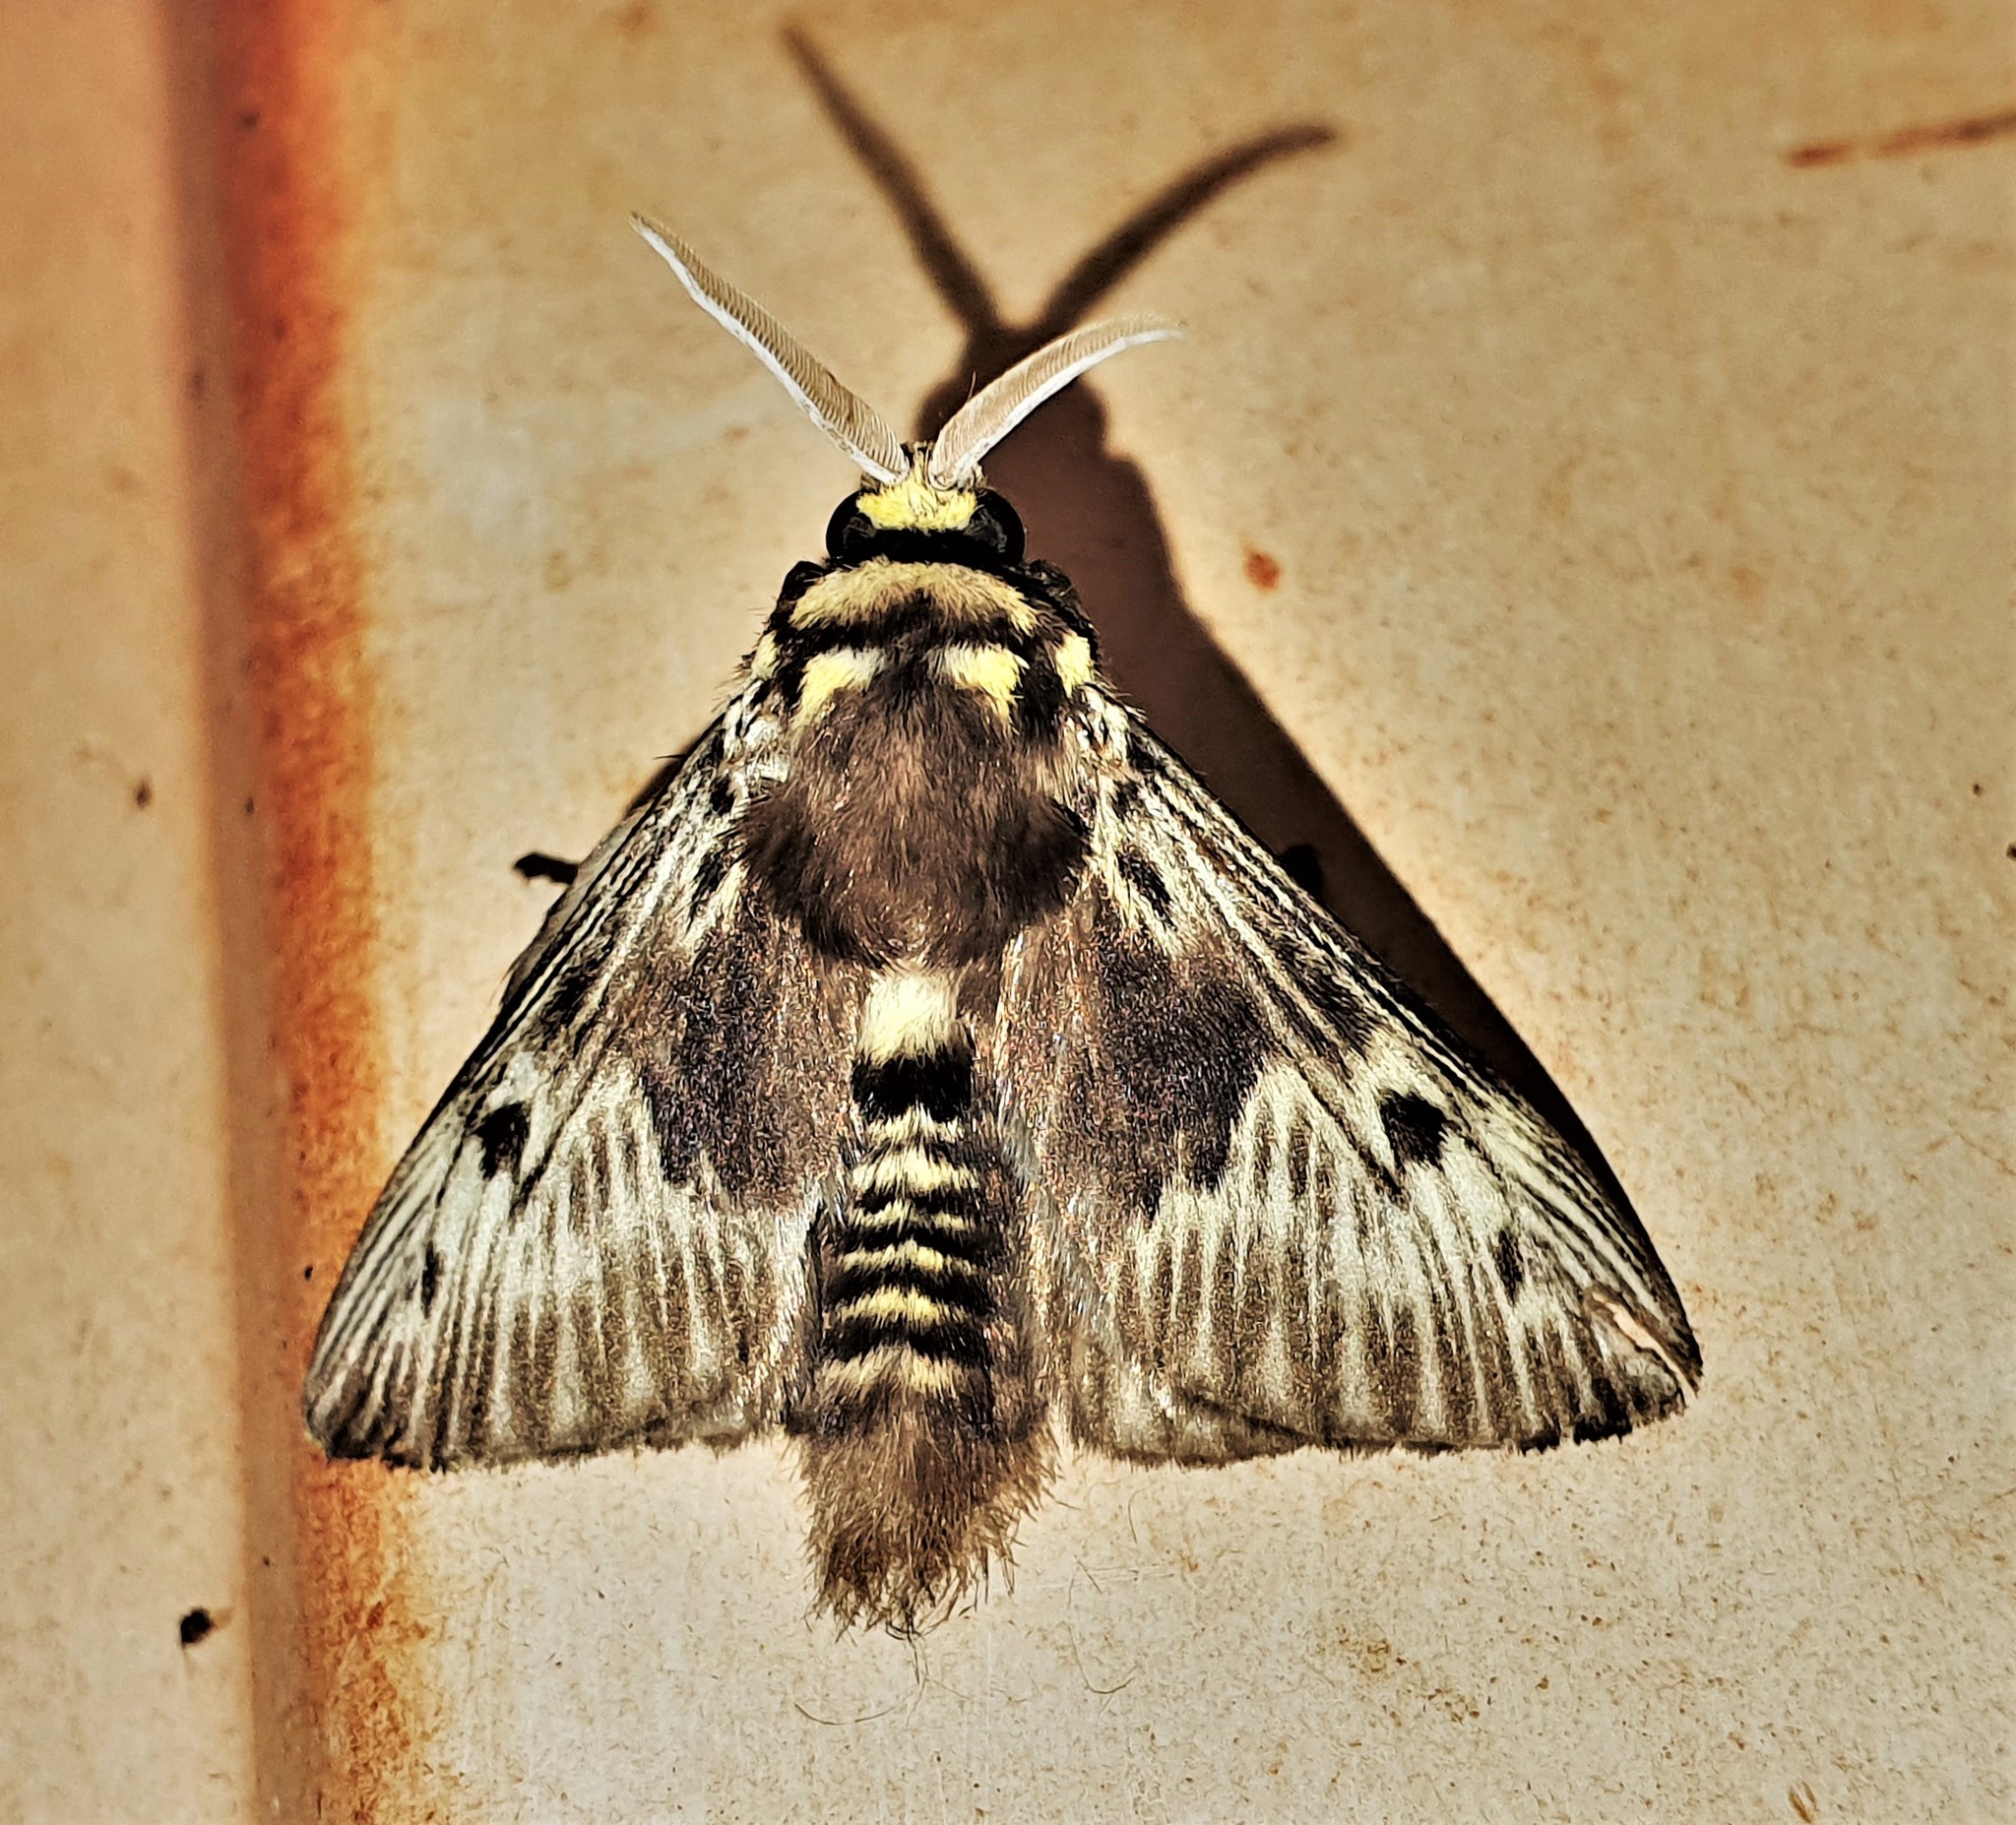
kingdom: Animalia
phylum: Arthropoda
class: Insecta
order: Lepidoptera
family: Megalopygidae
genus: Megalopyge
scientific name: Megalopyge albicollis
